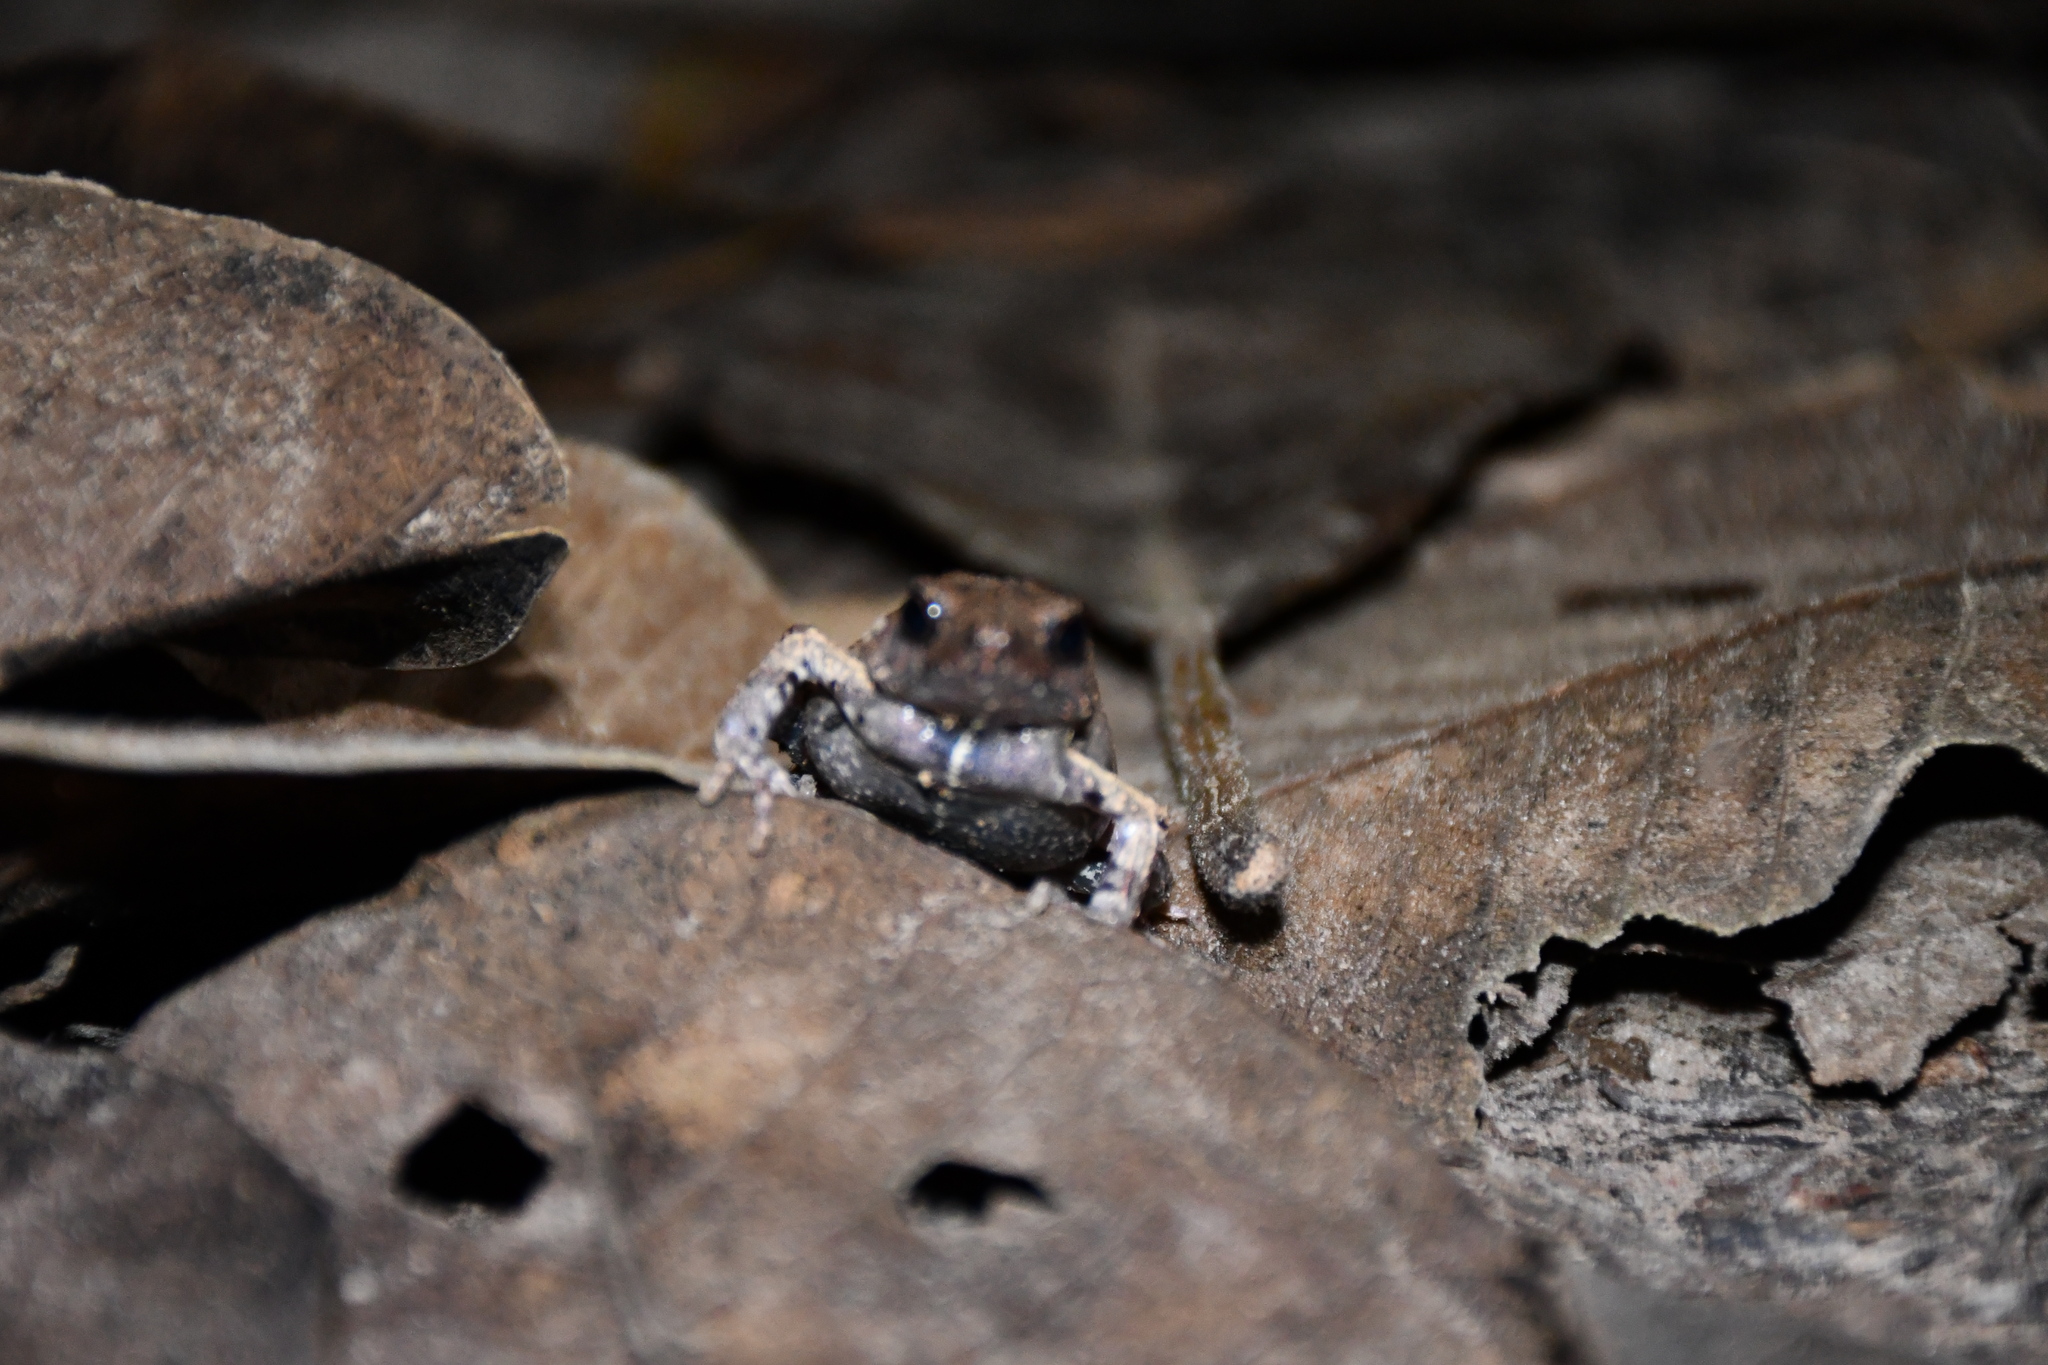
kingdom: Animalia
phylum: Chordata
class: Amphibia
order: Anura
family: Leptodactylidae
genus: Engystomops
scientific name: Engystomops freibergi
